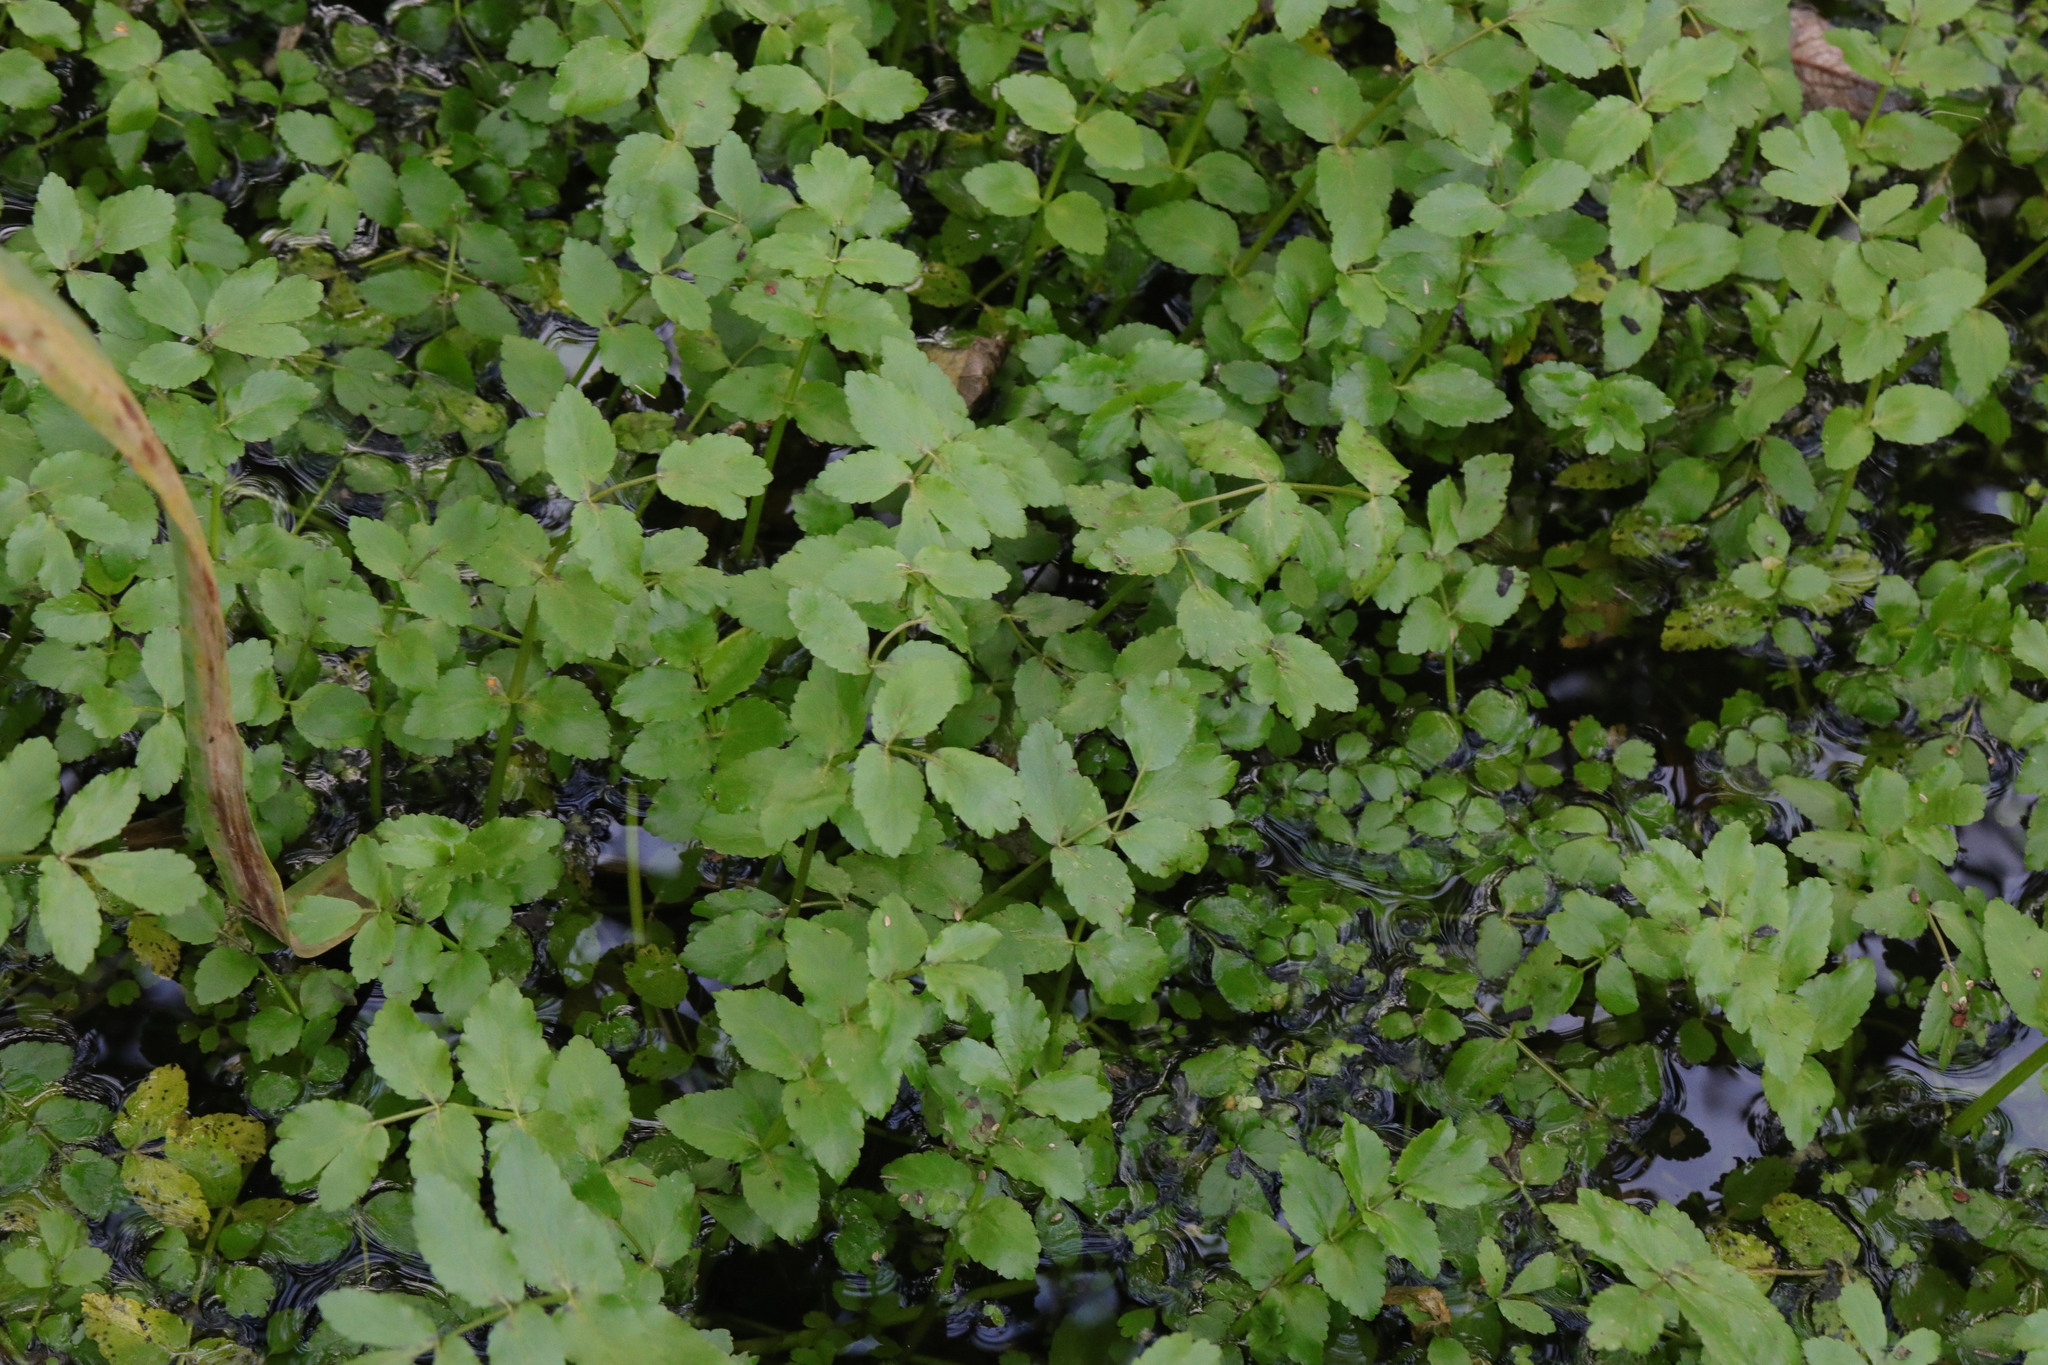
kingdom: Plantae
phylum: Tracheophyta
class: Magnoliopsida
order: Apiales
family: Apiaceae
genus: Helosciadium
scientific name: Helosciadium nodiflorum
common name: Fool's-watercress
